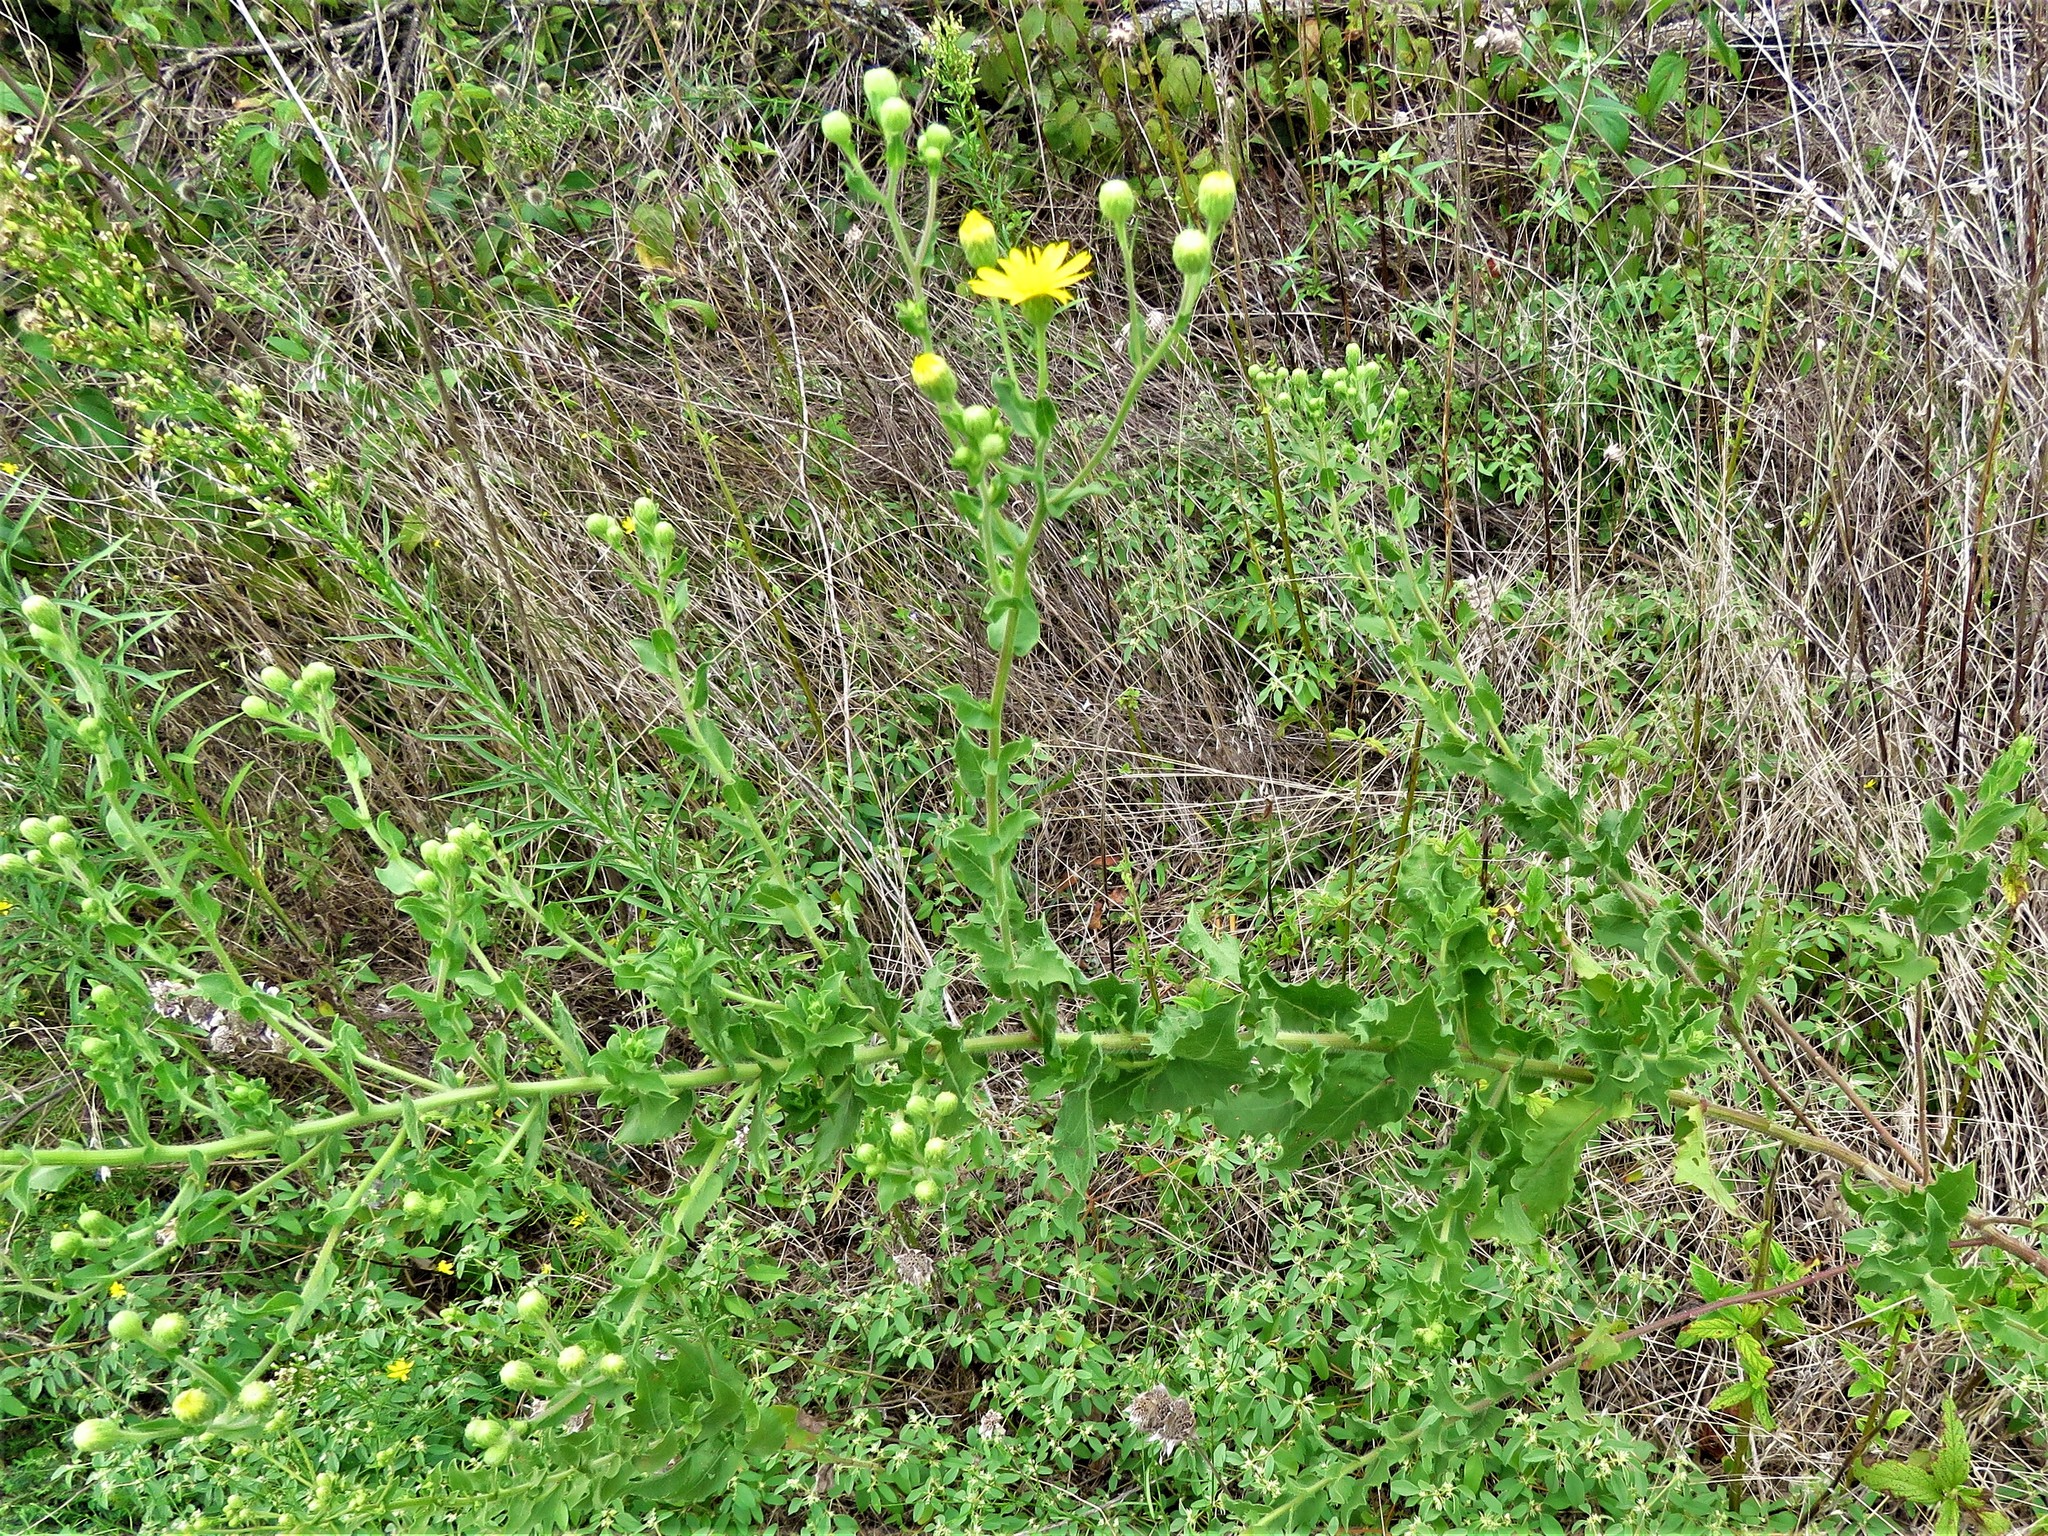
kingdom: Plantae
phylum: Tracheophyta
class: Magnoliopsida
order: Asterales
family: Asteraceae
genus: Heterotheca
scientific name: Heterotheca subaxillaris
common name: Camphorweed
